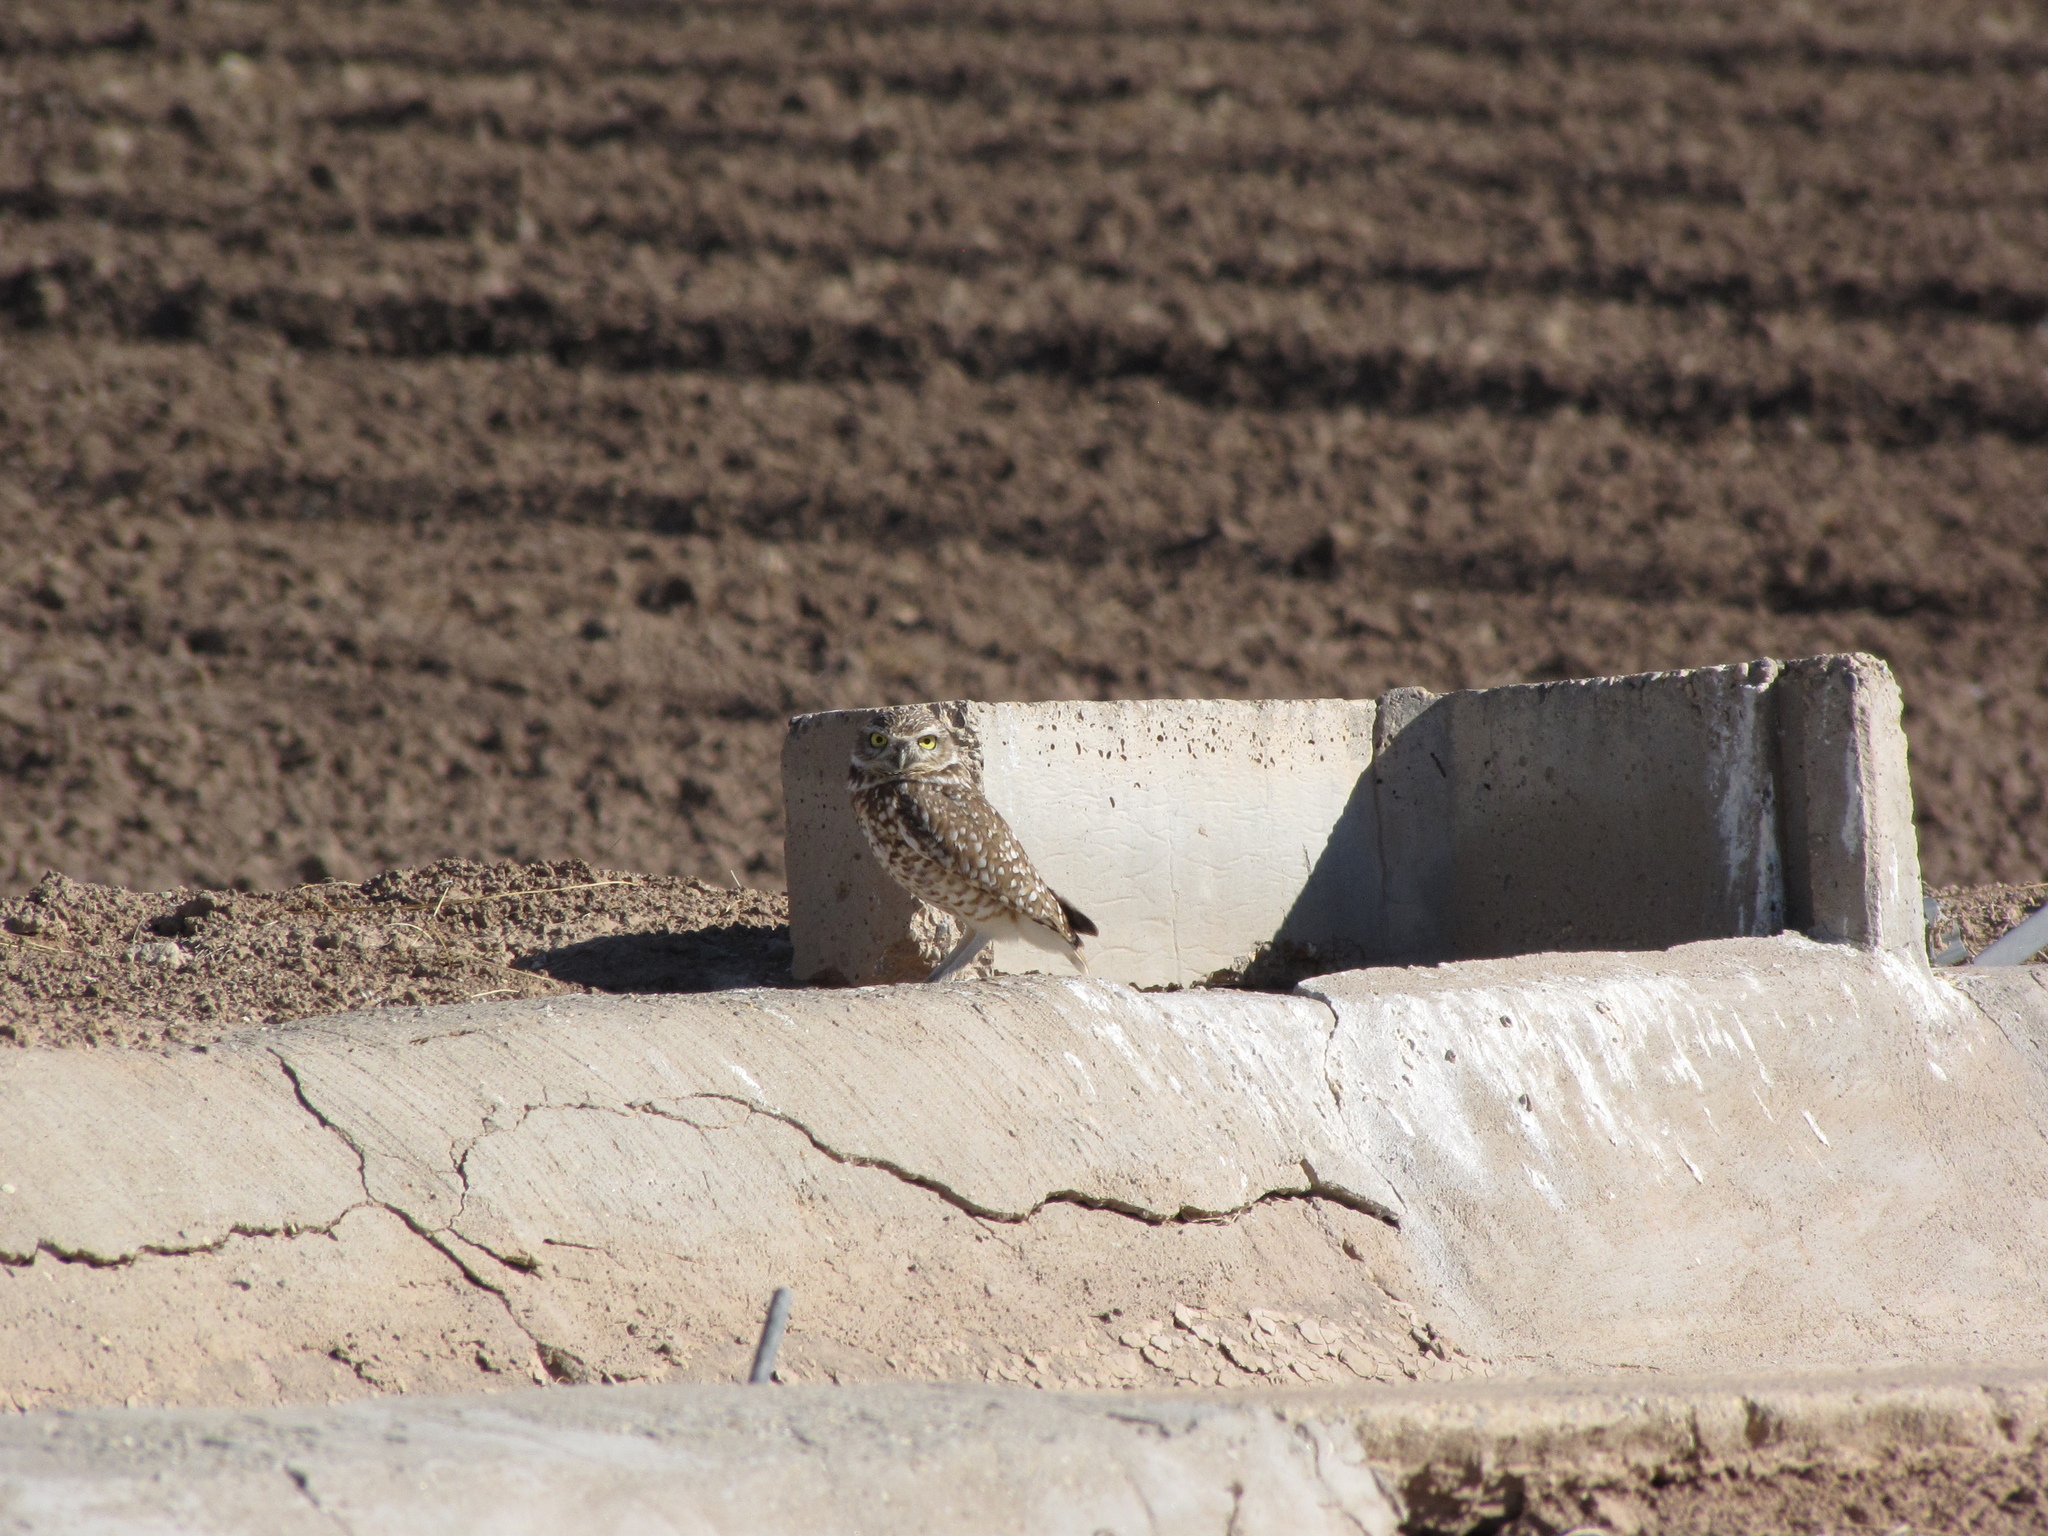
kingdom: Animalia
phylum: Chordata
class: Aves
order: Strigiformes
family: Strigidae
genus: Athene
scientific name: Athene cunicularia
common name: Burrowing owl
